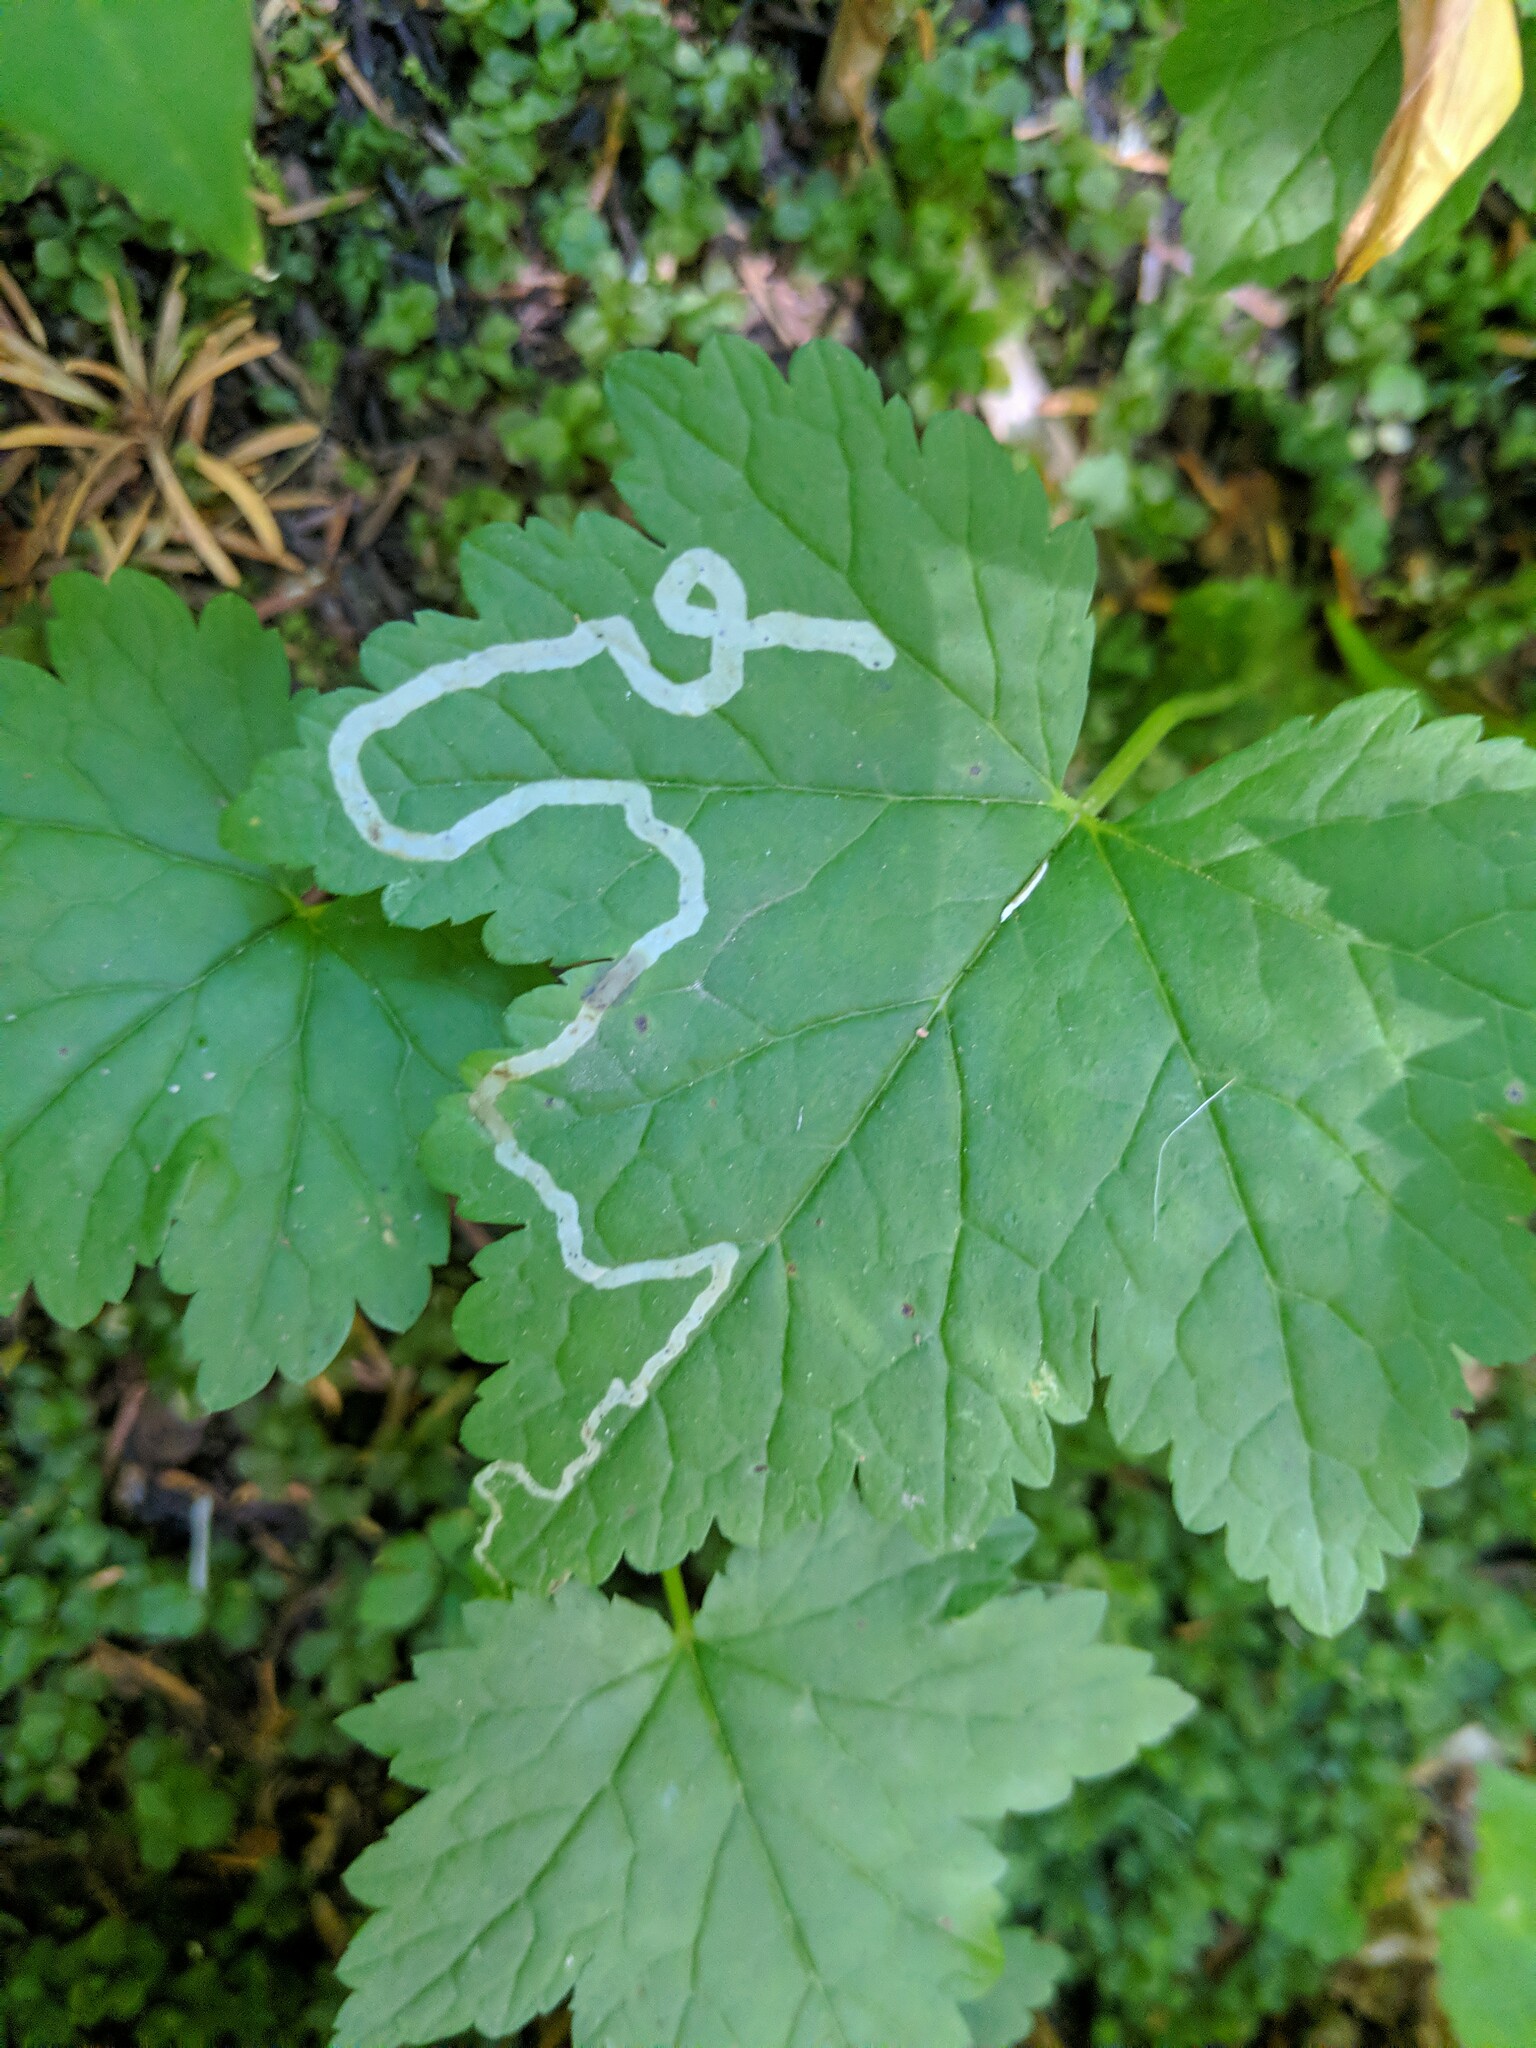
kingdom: Animalia
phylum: Arthropoda
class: Insecta
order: Diptera
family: Agromyzidae
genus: Phytomyza
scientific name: Phytomyza tiarellae
